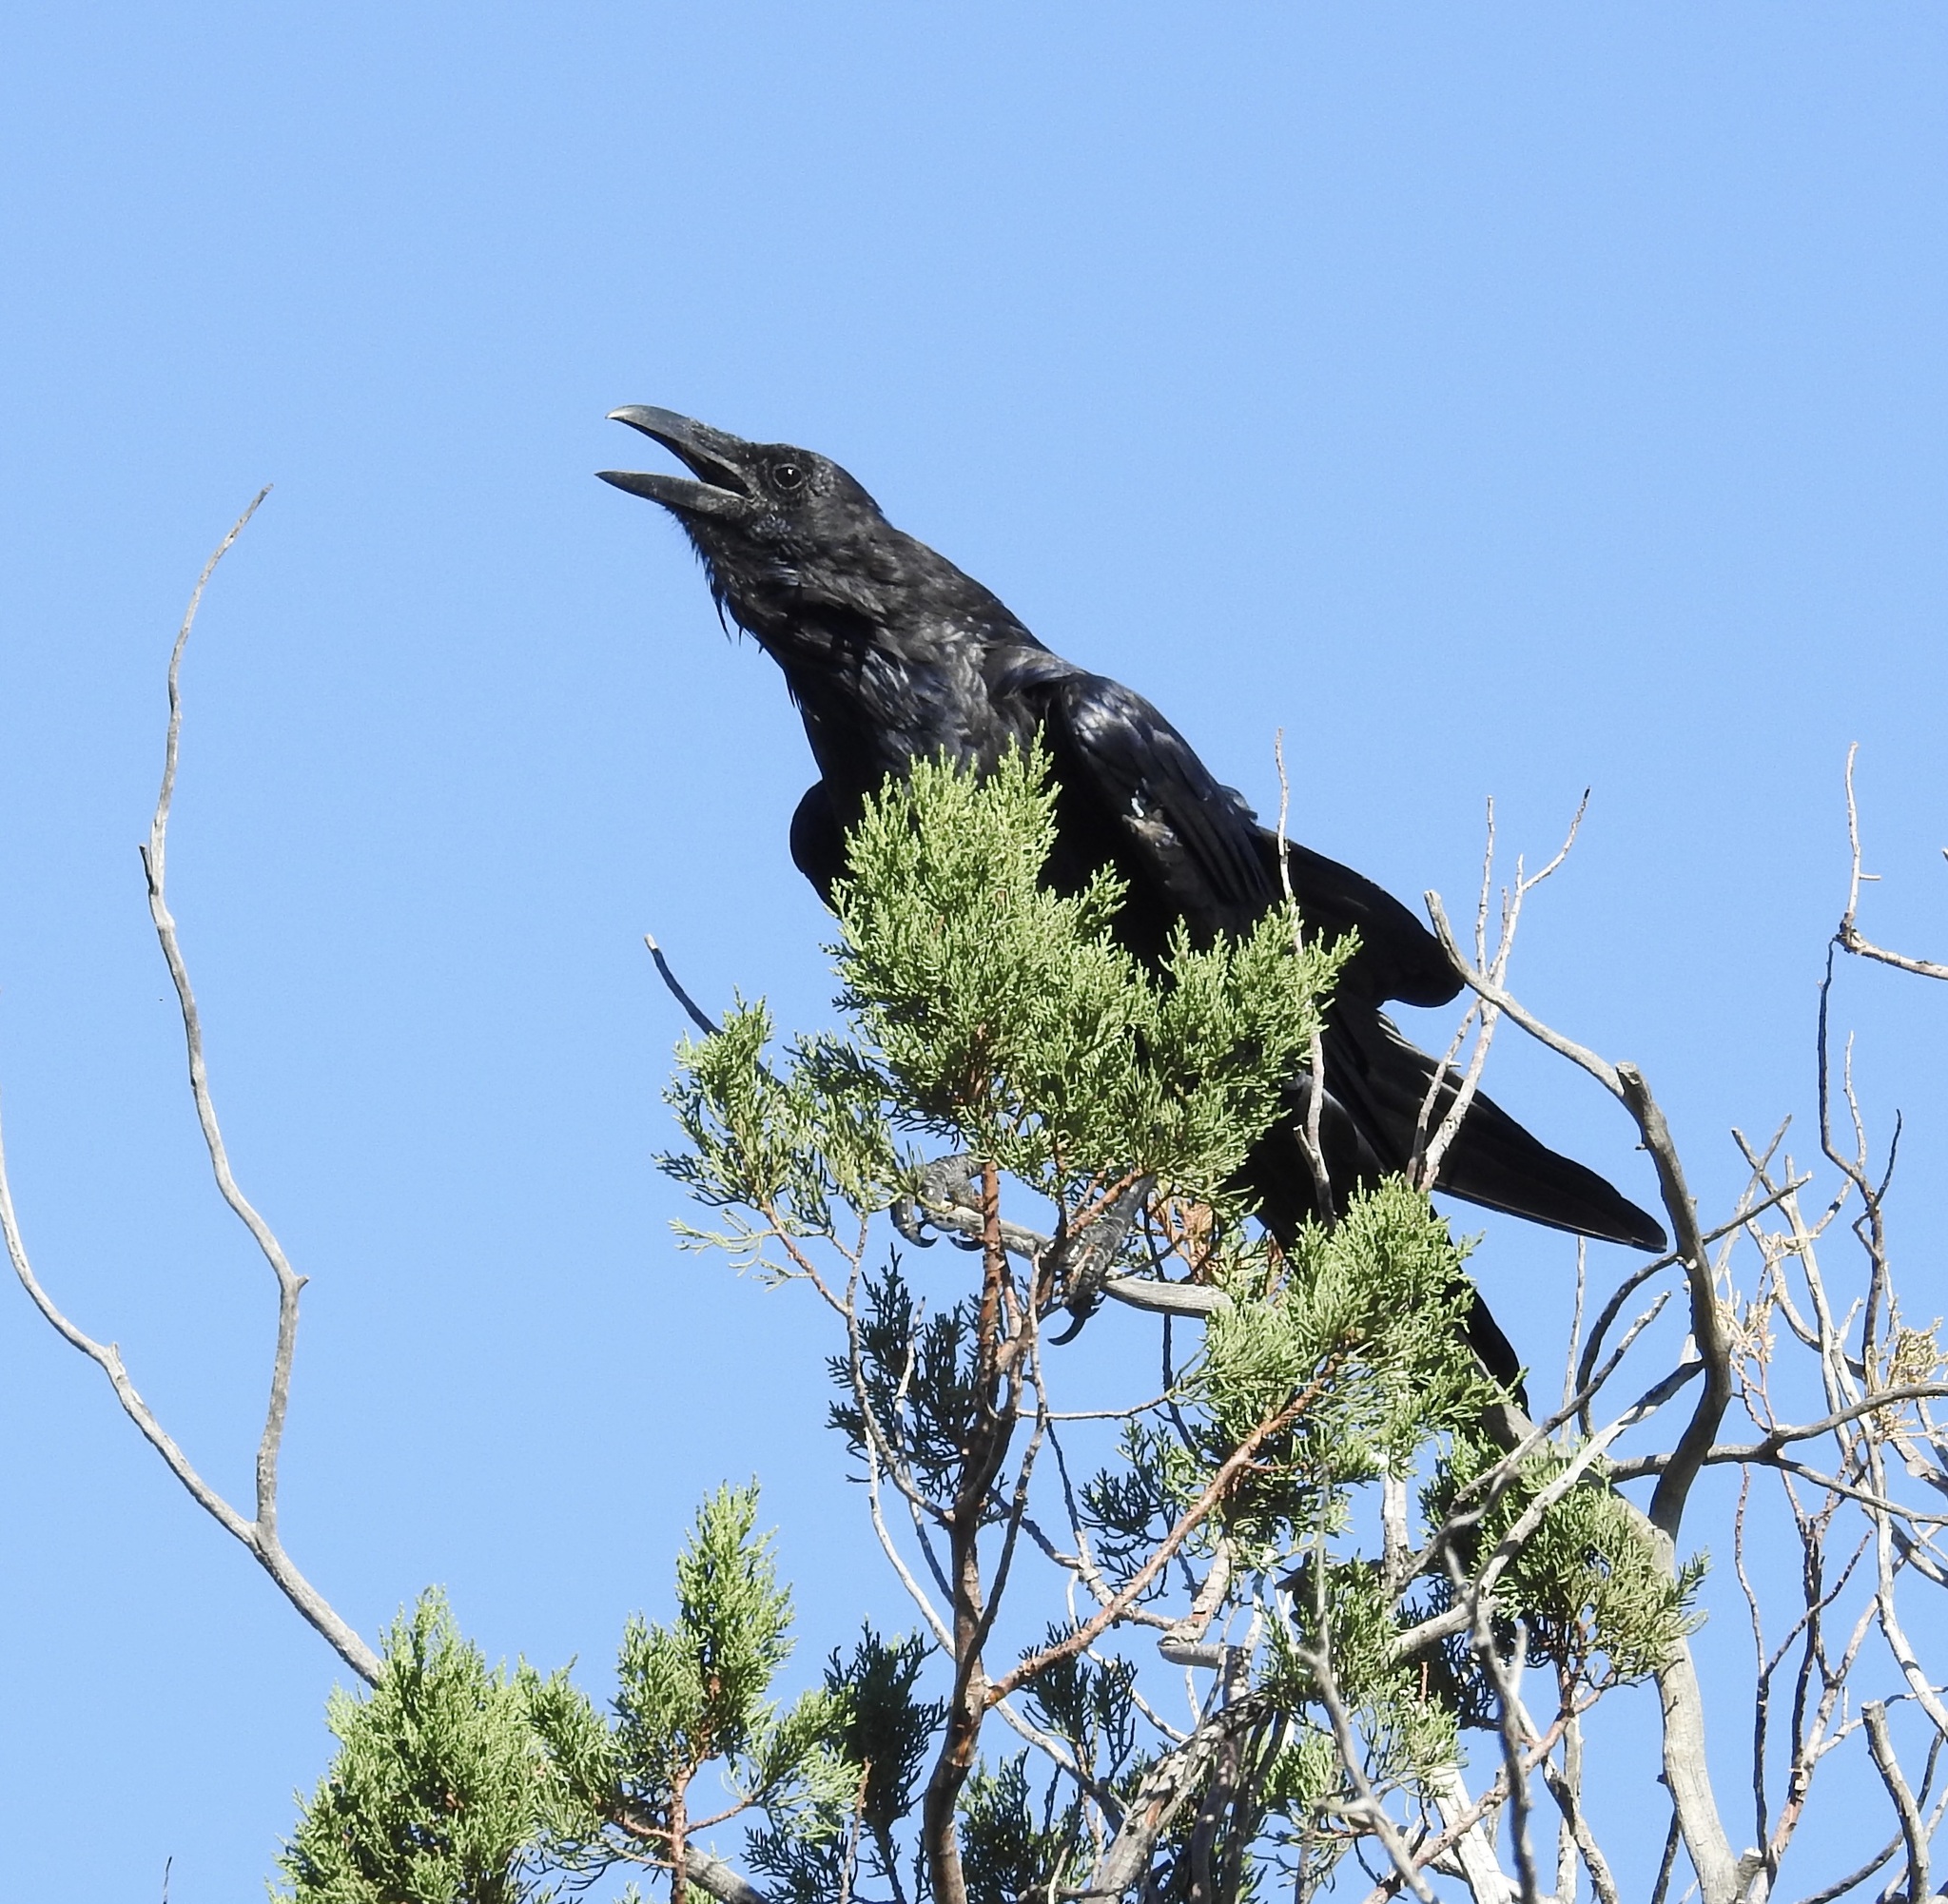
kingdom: Animalia
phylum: Chordata
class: Aves
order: Passeriformes
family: Corvidae
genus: Corvus
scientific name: Corvus corax
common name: Common raven
